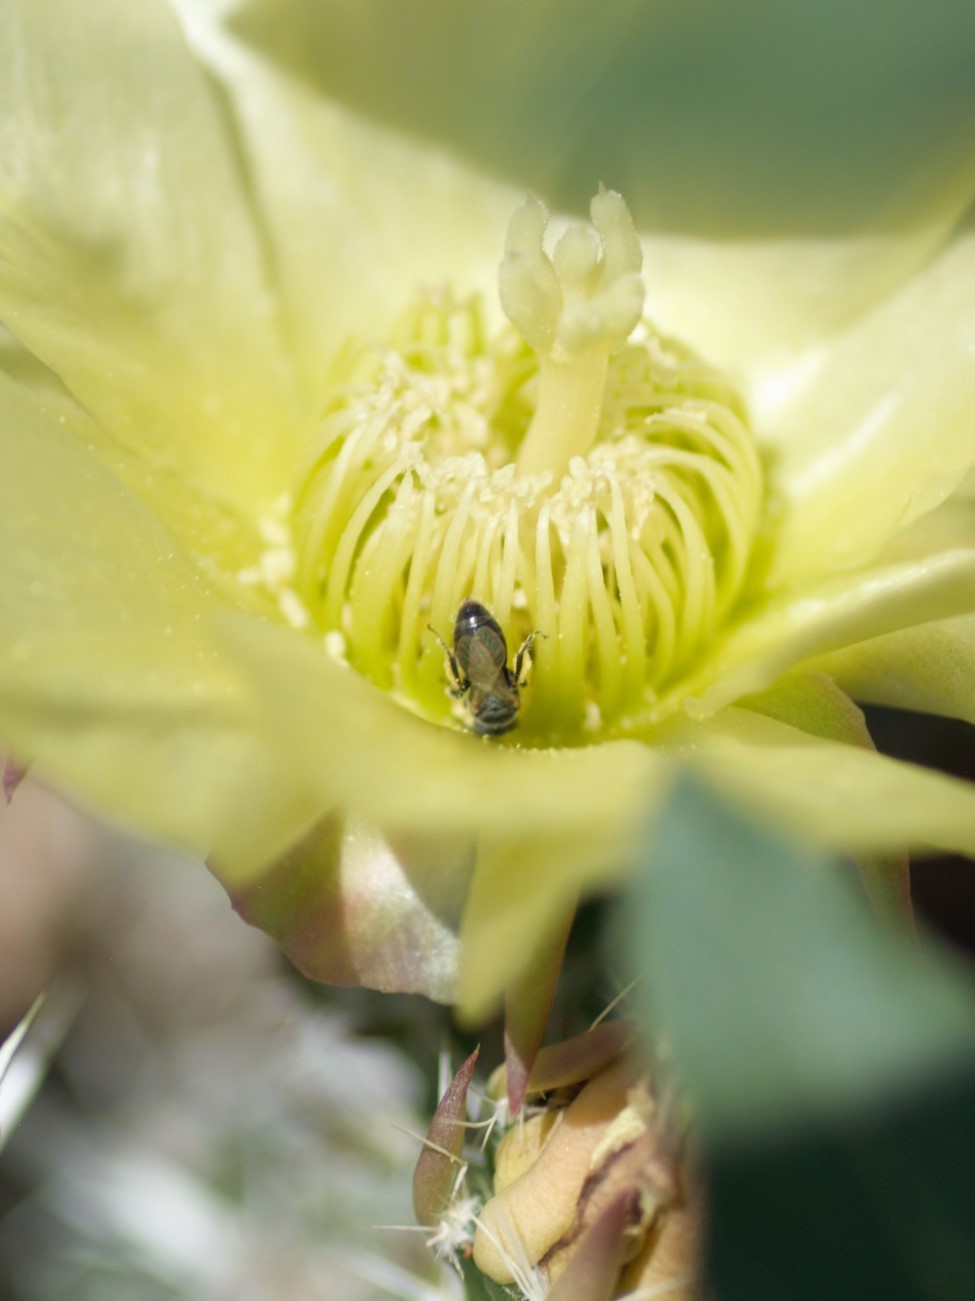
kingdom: Animalia
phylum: Arthropoda
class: Insecta
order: Hymenoptera
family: Andrenidae
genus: Macrotera
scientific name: Macrotera
